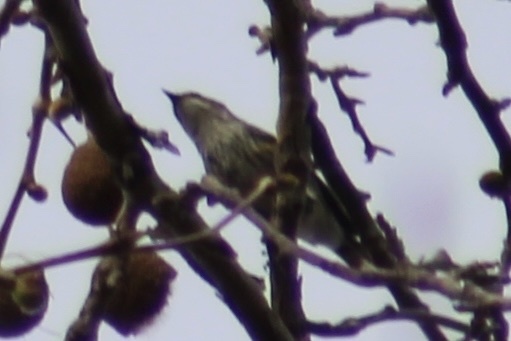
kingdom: Animalia
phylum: Chordata
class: Aves
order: Passeriformes
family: Parulidae
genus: Setophaga
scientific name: Setophaga coronata
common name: Myrtle warbler
